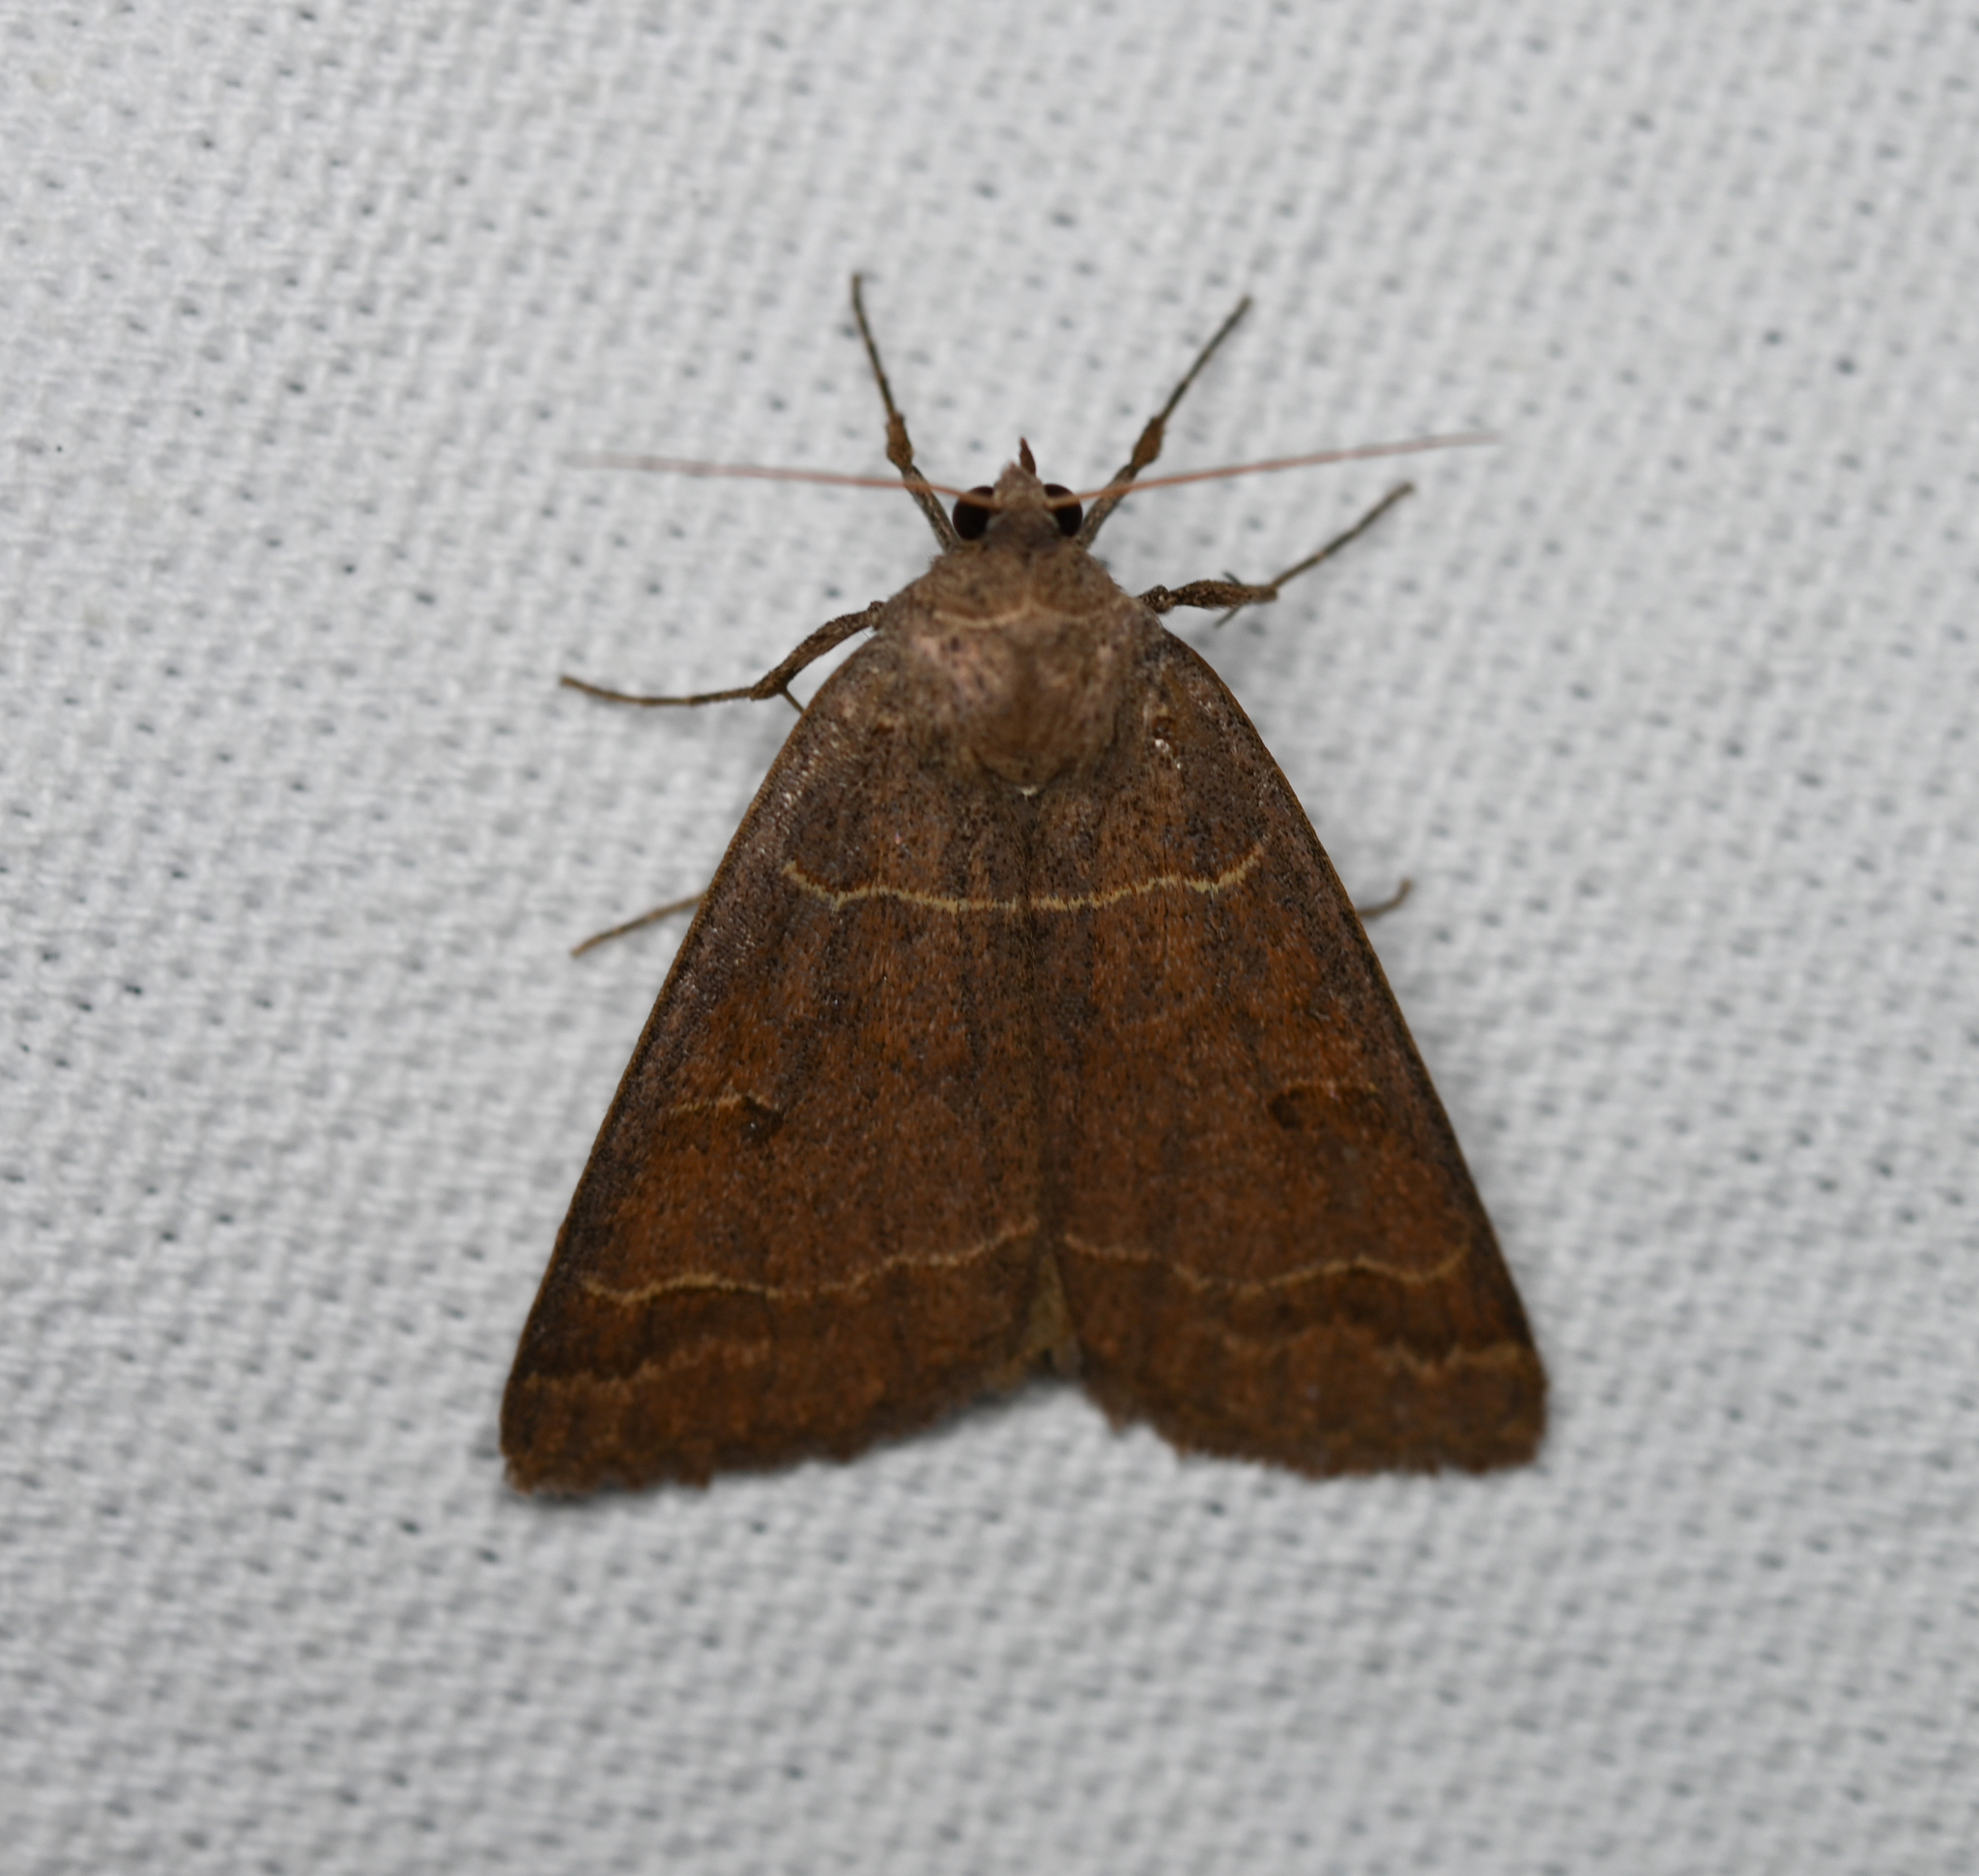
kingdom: Animalia
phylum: Arthropoda
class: Insecta
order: Lepidoptera
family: Erebidae
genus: Phoberia
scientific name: Phoberia atomaris
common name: Common oak moth
